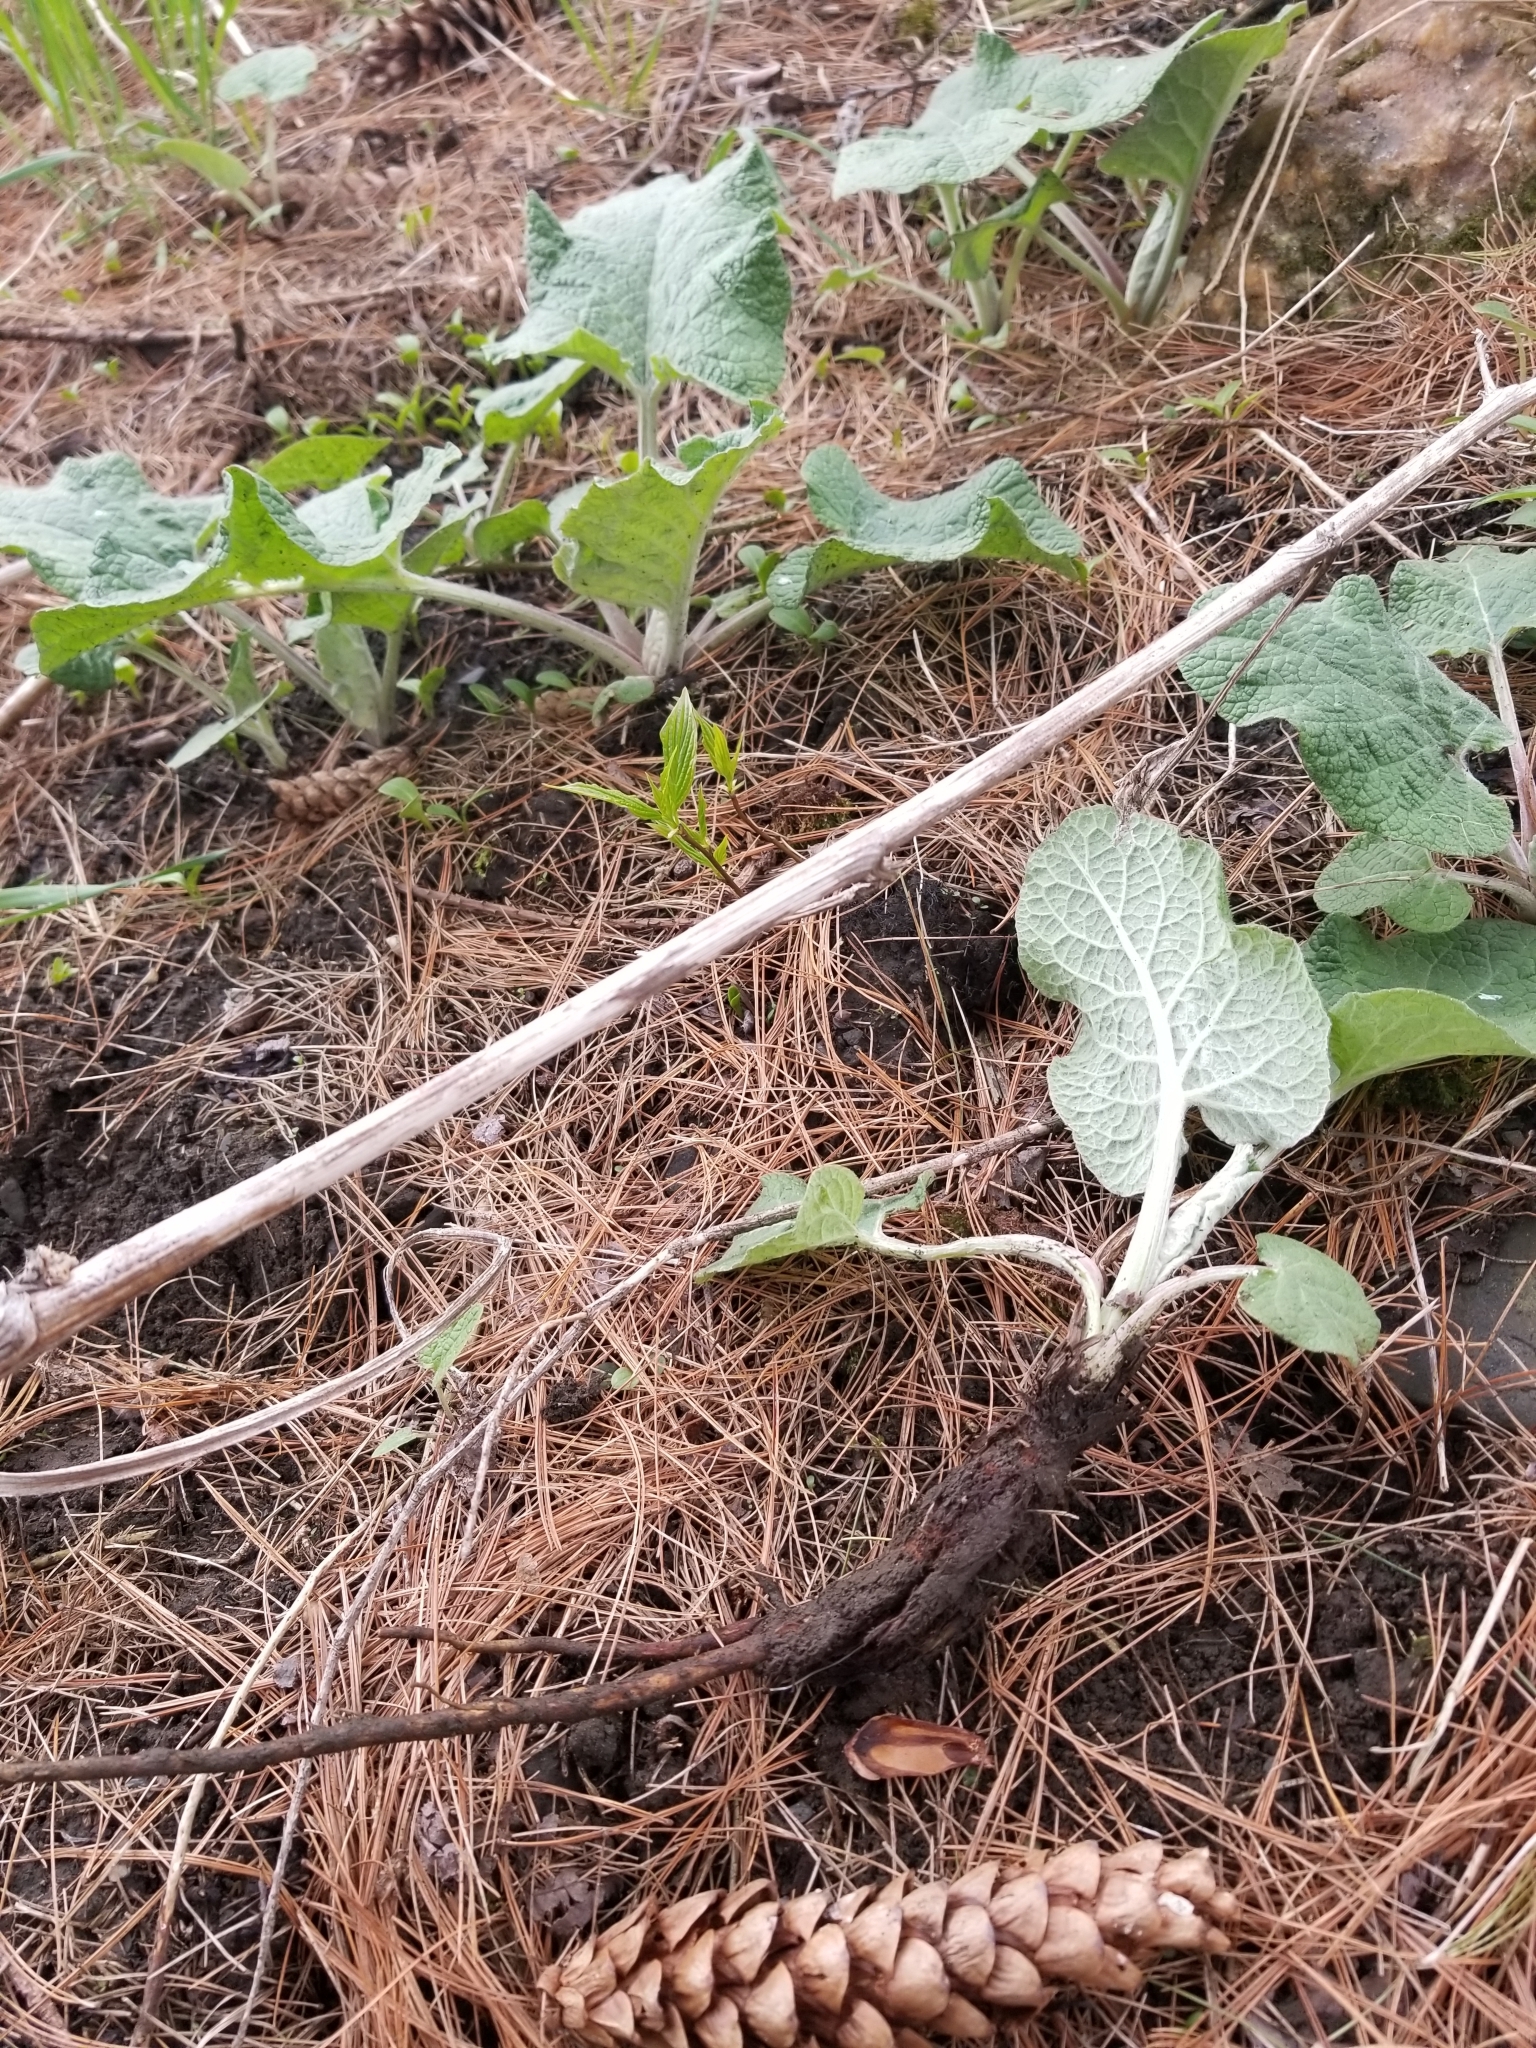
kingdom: Plantae
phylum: Tracheophyta
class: Magnoliopsida
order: Asterales
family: Asteraceae
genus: Arctium
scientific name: Arctium
